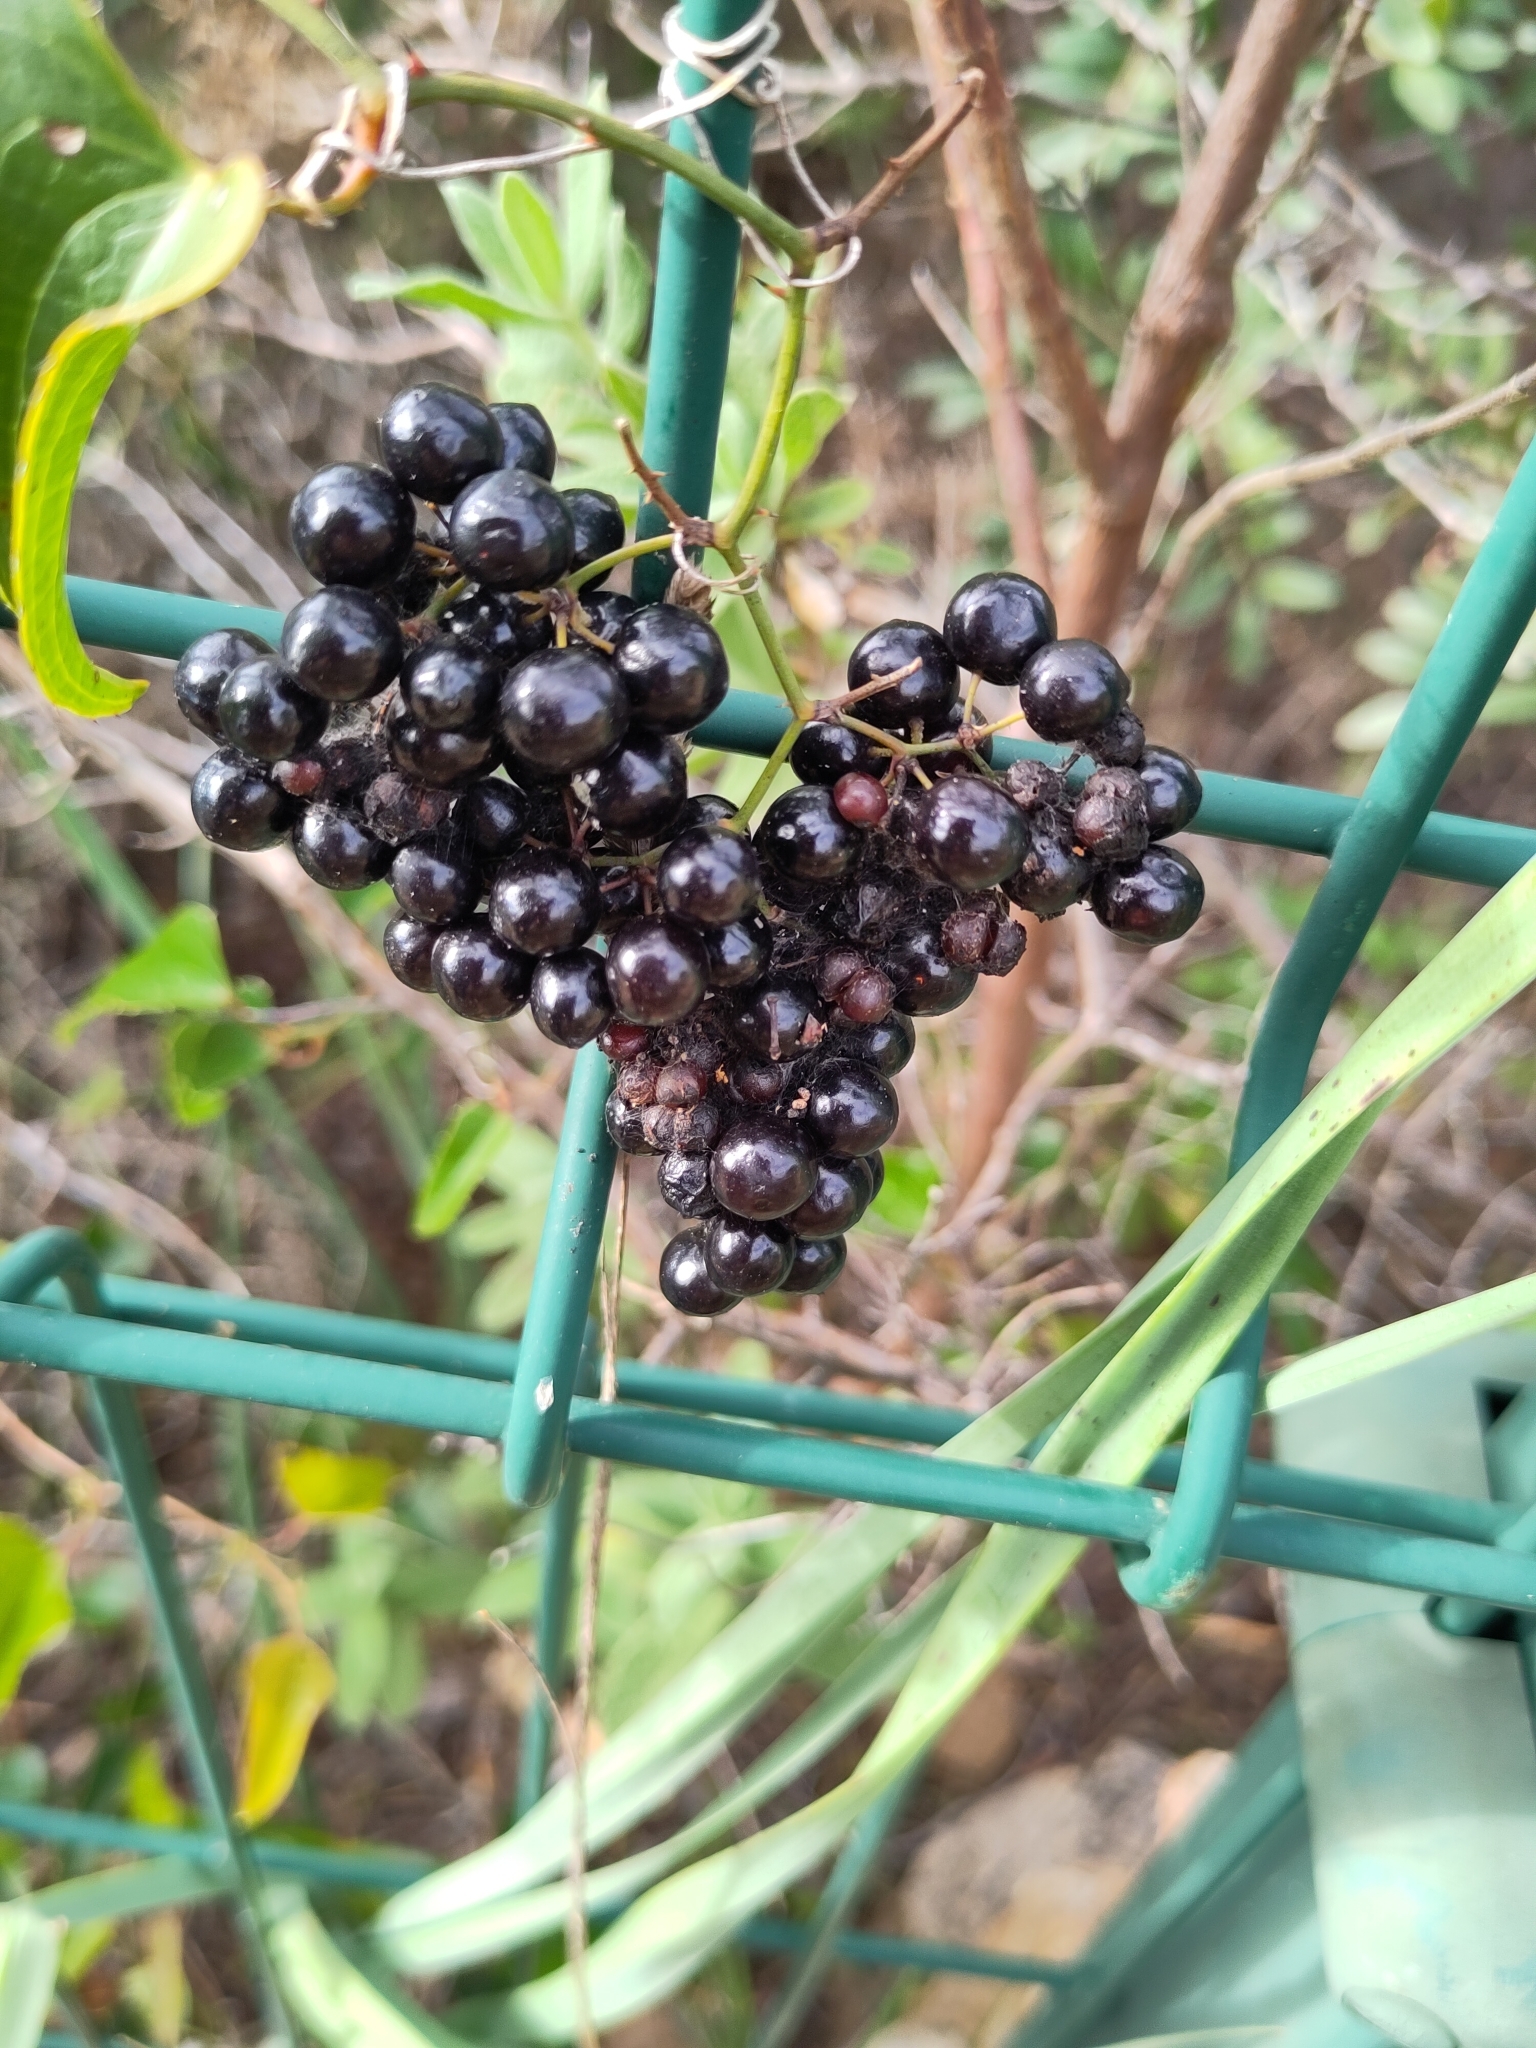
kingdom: Plantae
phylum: Tracheophyta
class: Liliopsida
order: Liliales
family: Smilacaceae
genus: Smilax
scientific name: Smilax aspera
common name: Common smilax
